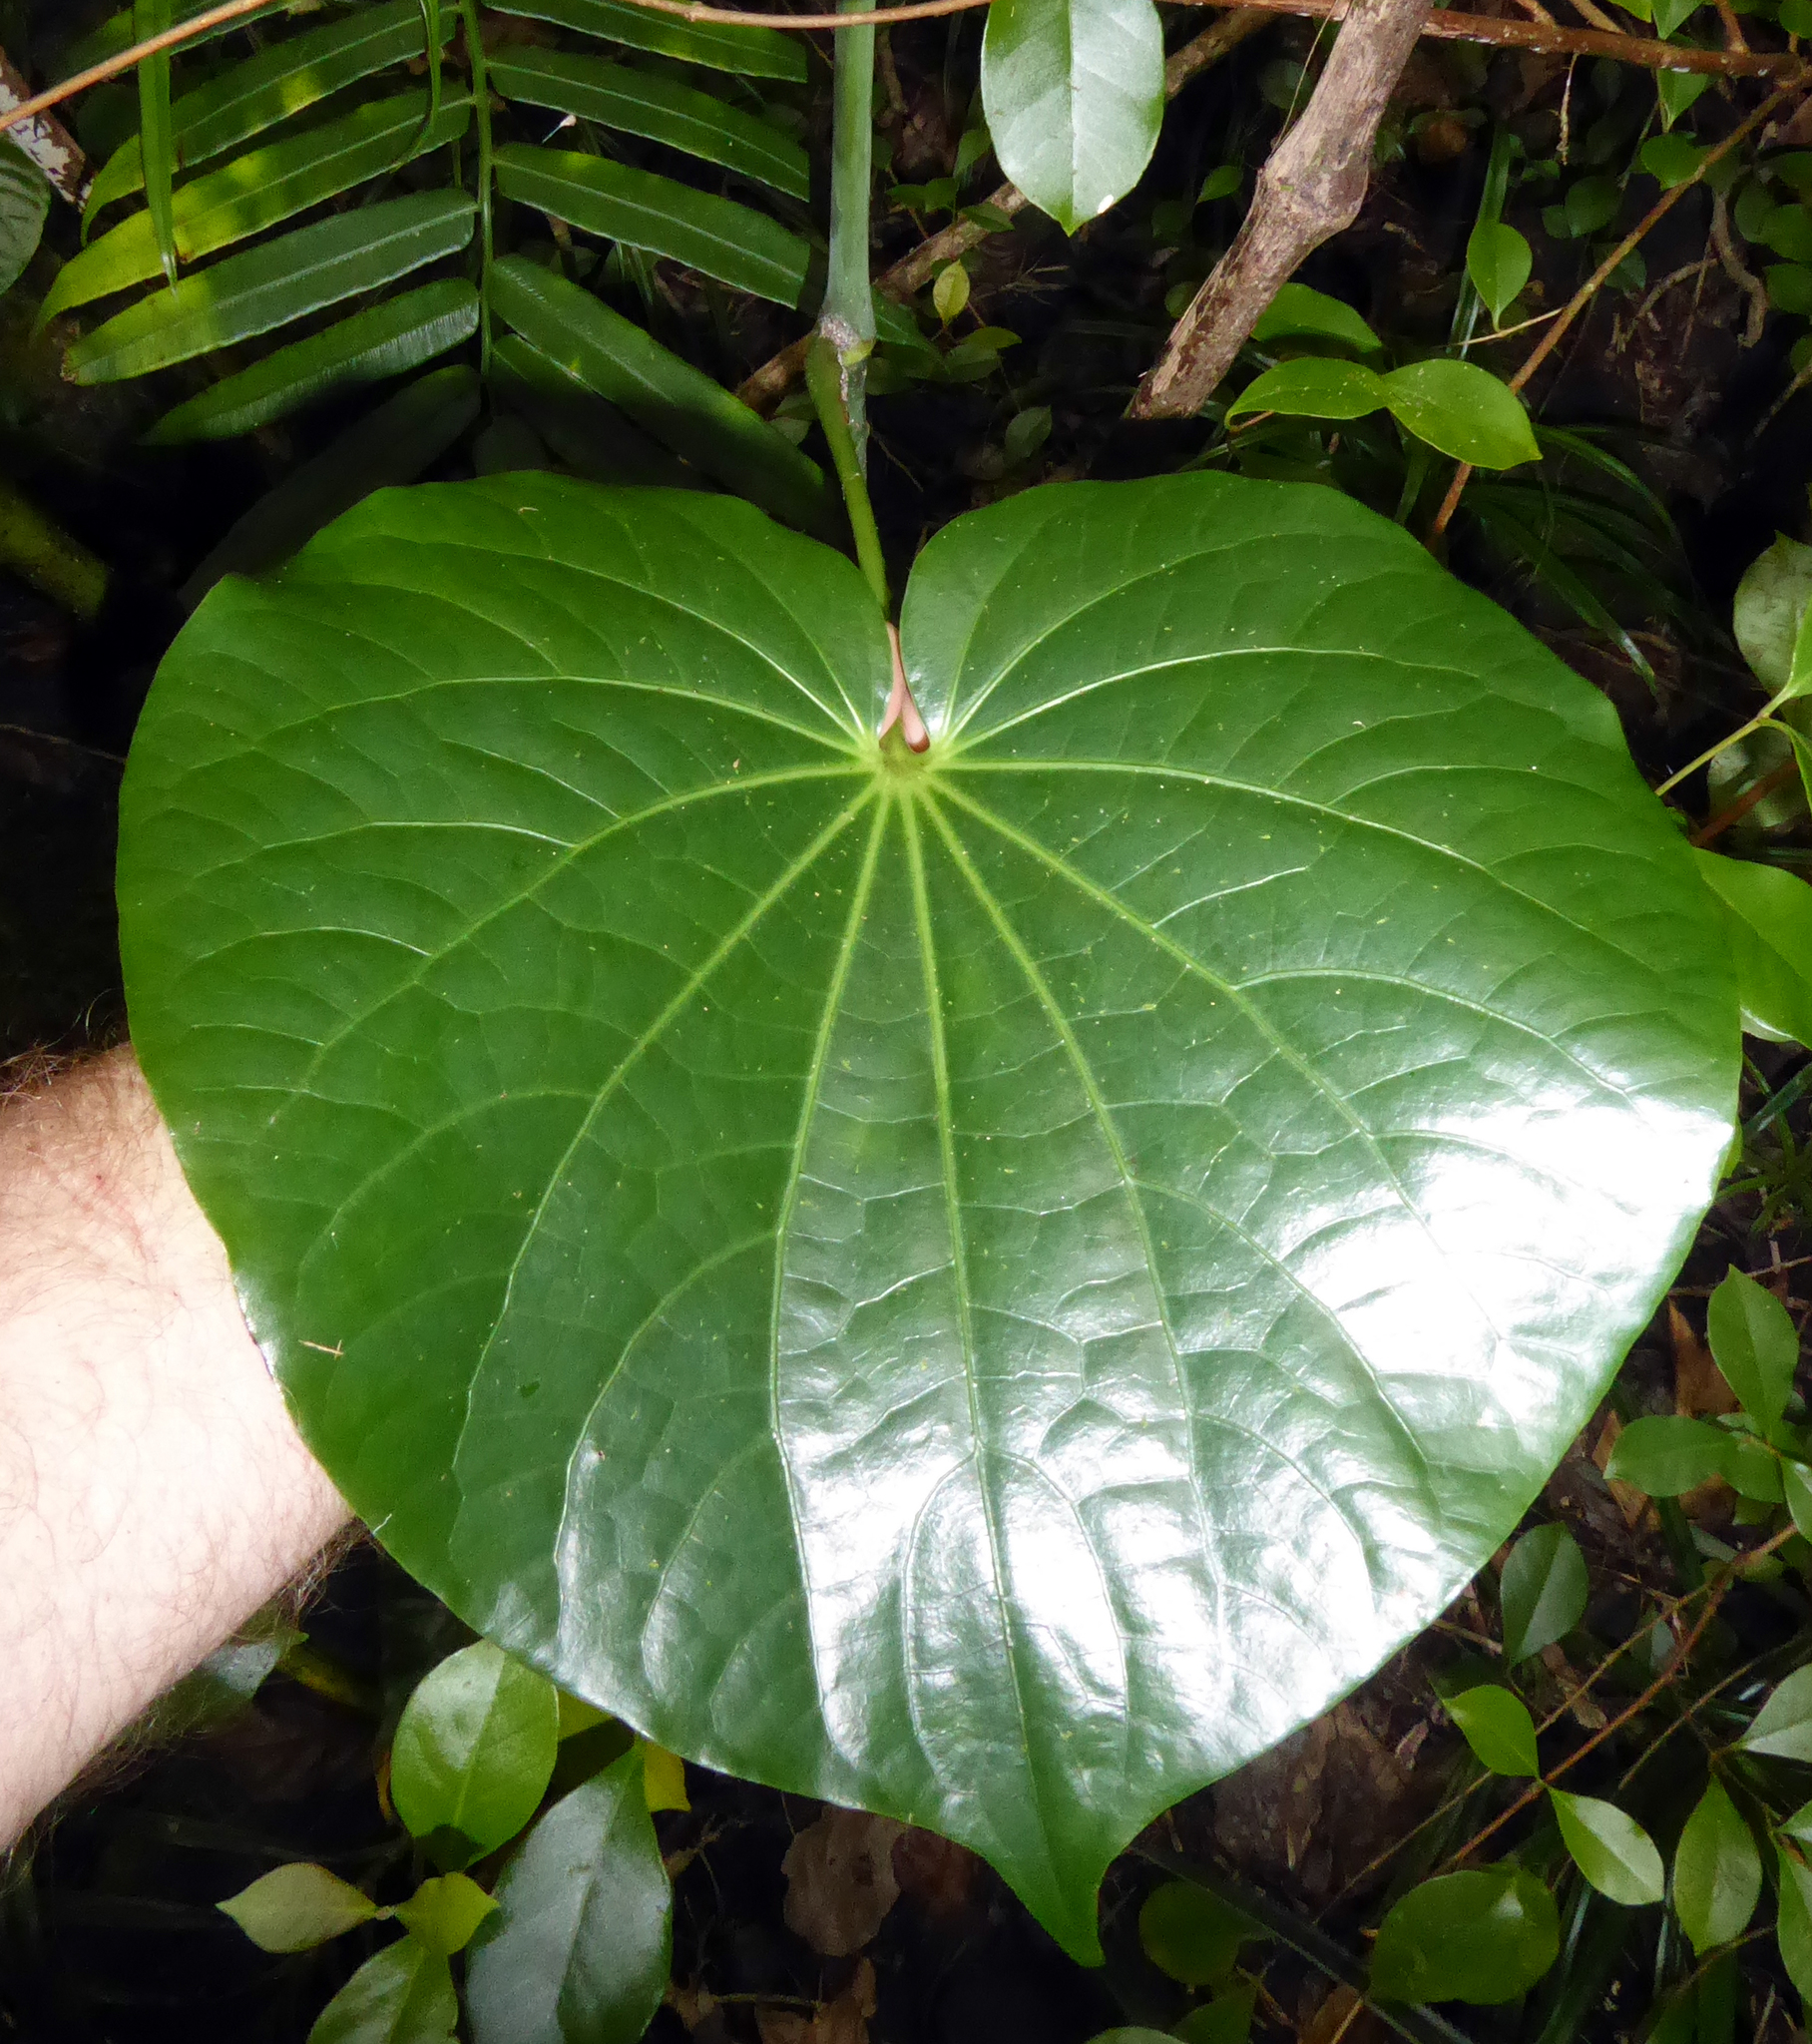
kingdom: Plantae
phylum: Tracheophyta
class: Magnoliopsida
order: Piperales
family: Piperaceae
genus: Piper
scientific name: Piper latifolium
